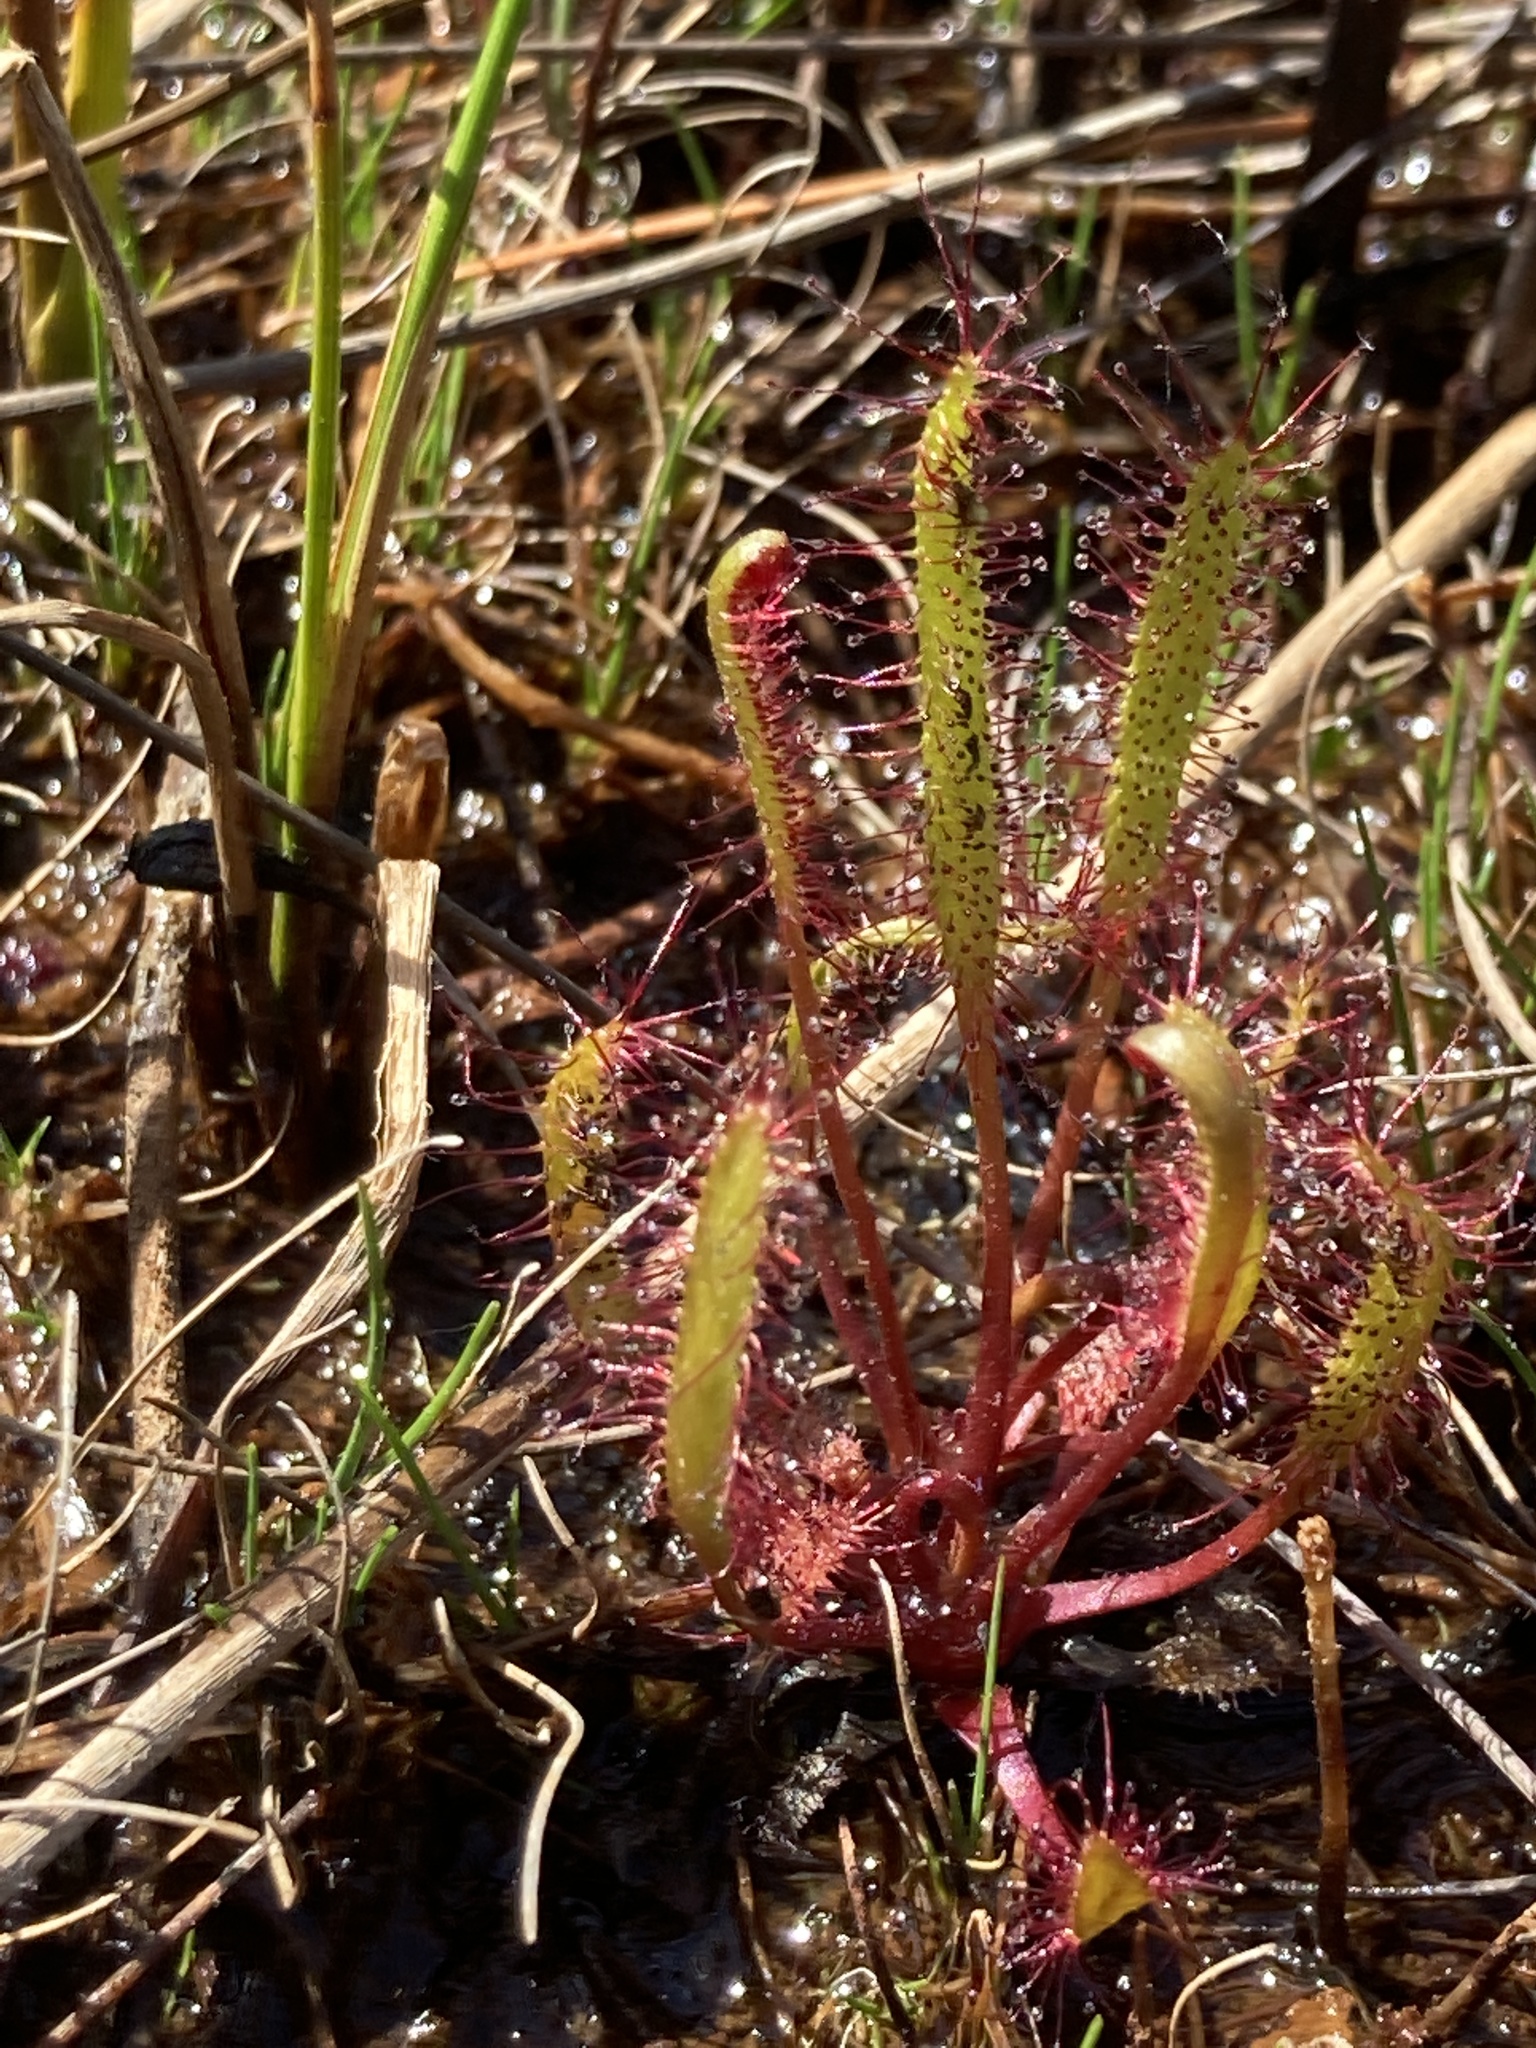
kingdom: Plantae
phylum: Tracheophyta
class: Magnoliopsida
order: Caryophyllales
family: Droseraceae
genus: Drosera
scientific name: Drosera linearis
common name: Linear-leaved sundew
